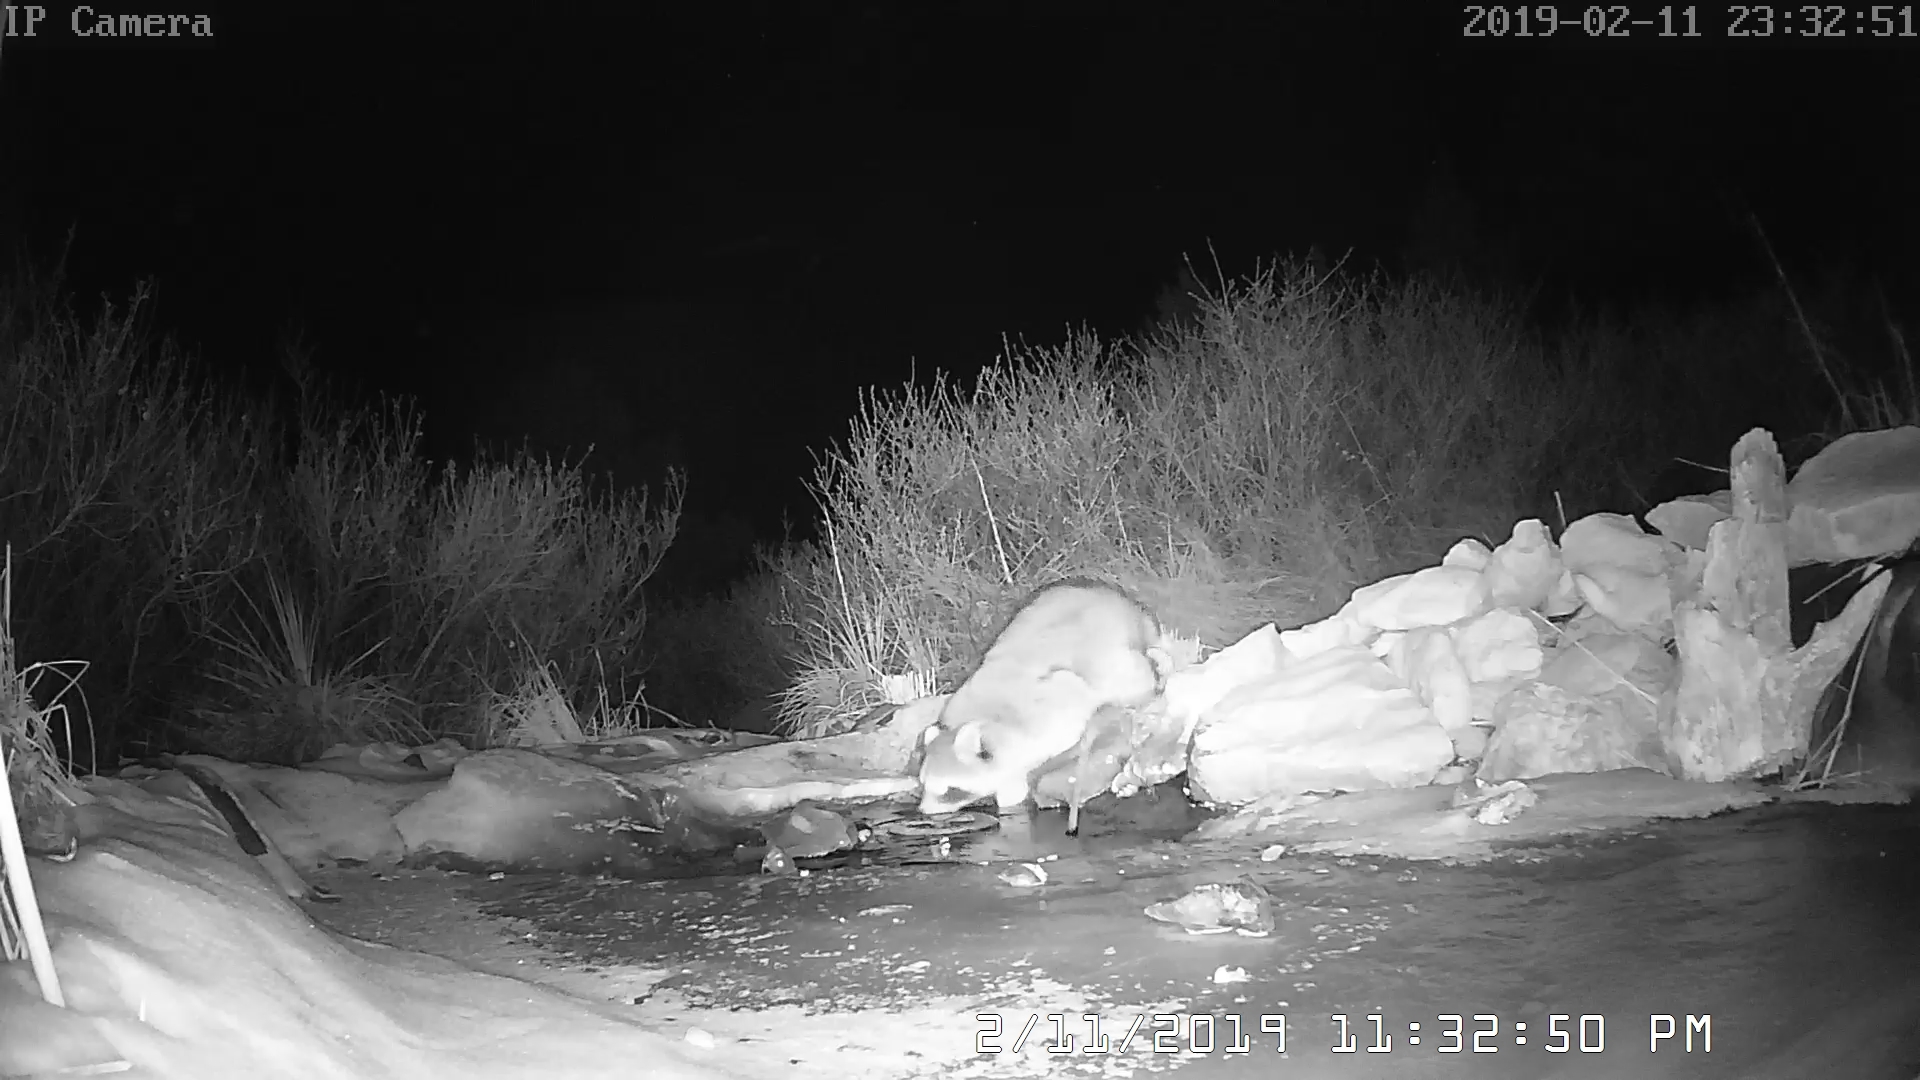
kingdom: Animalia
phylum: Chordata
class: Mammalia
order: Carnivora
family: Procyonidae
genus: Procyon
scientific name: Procyon lotor
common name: Raccoon
